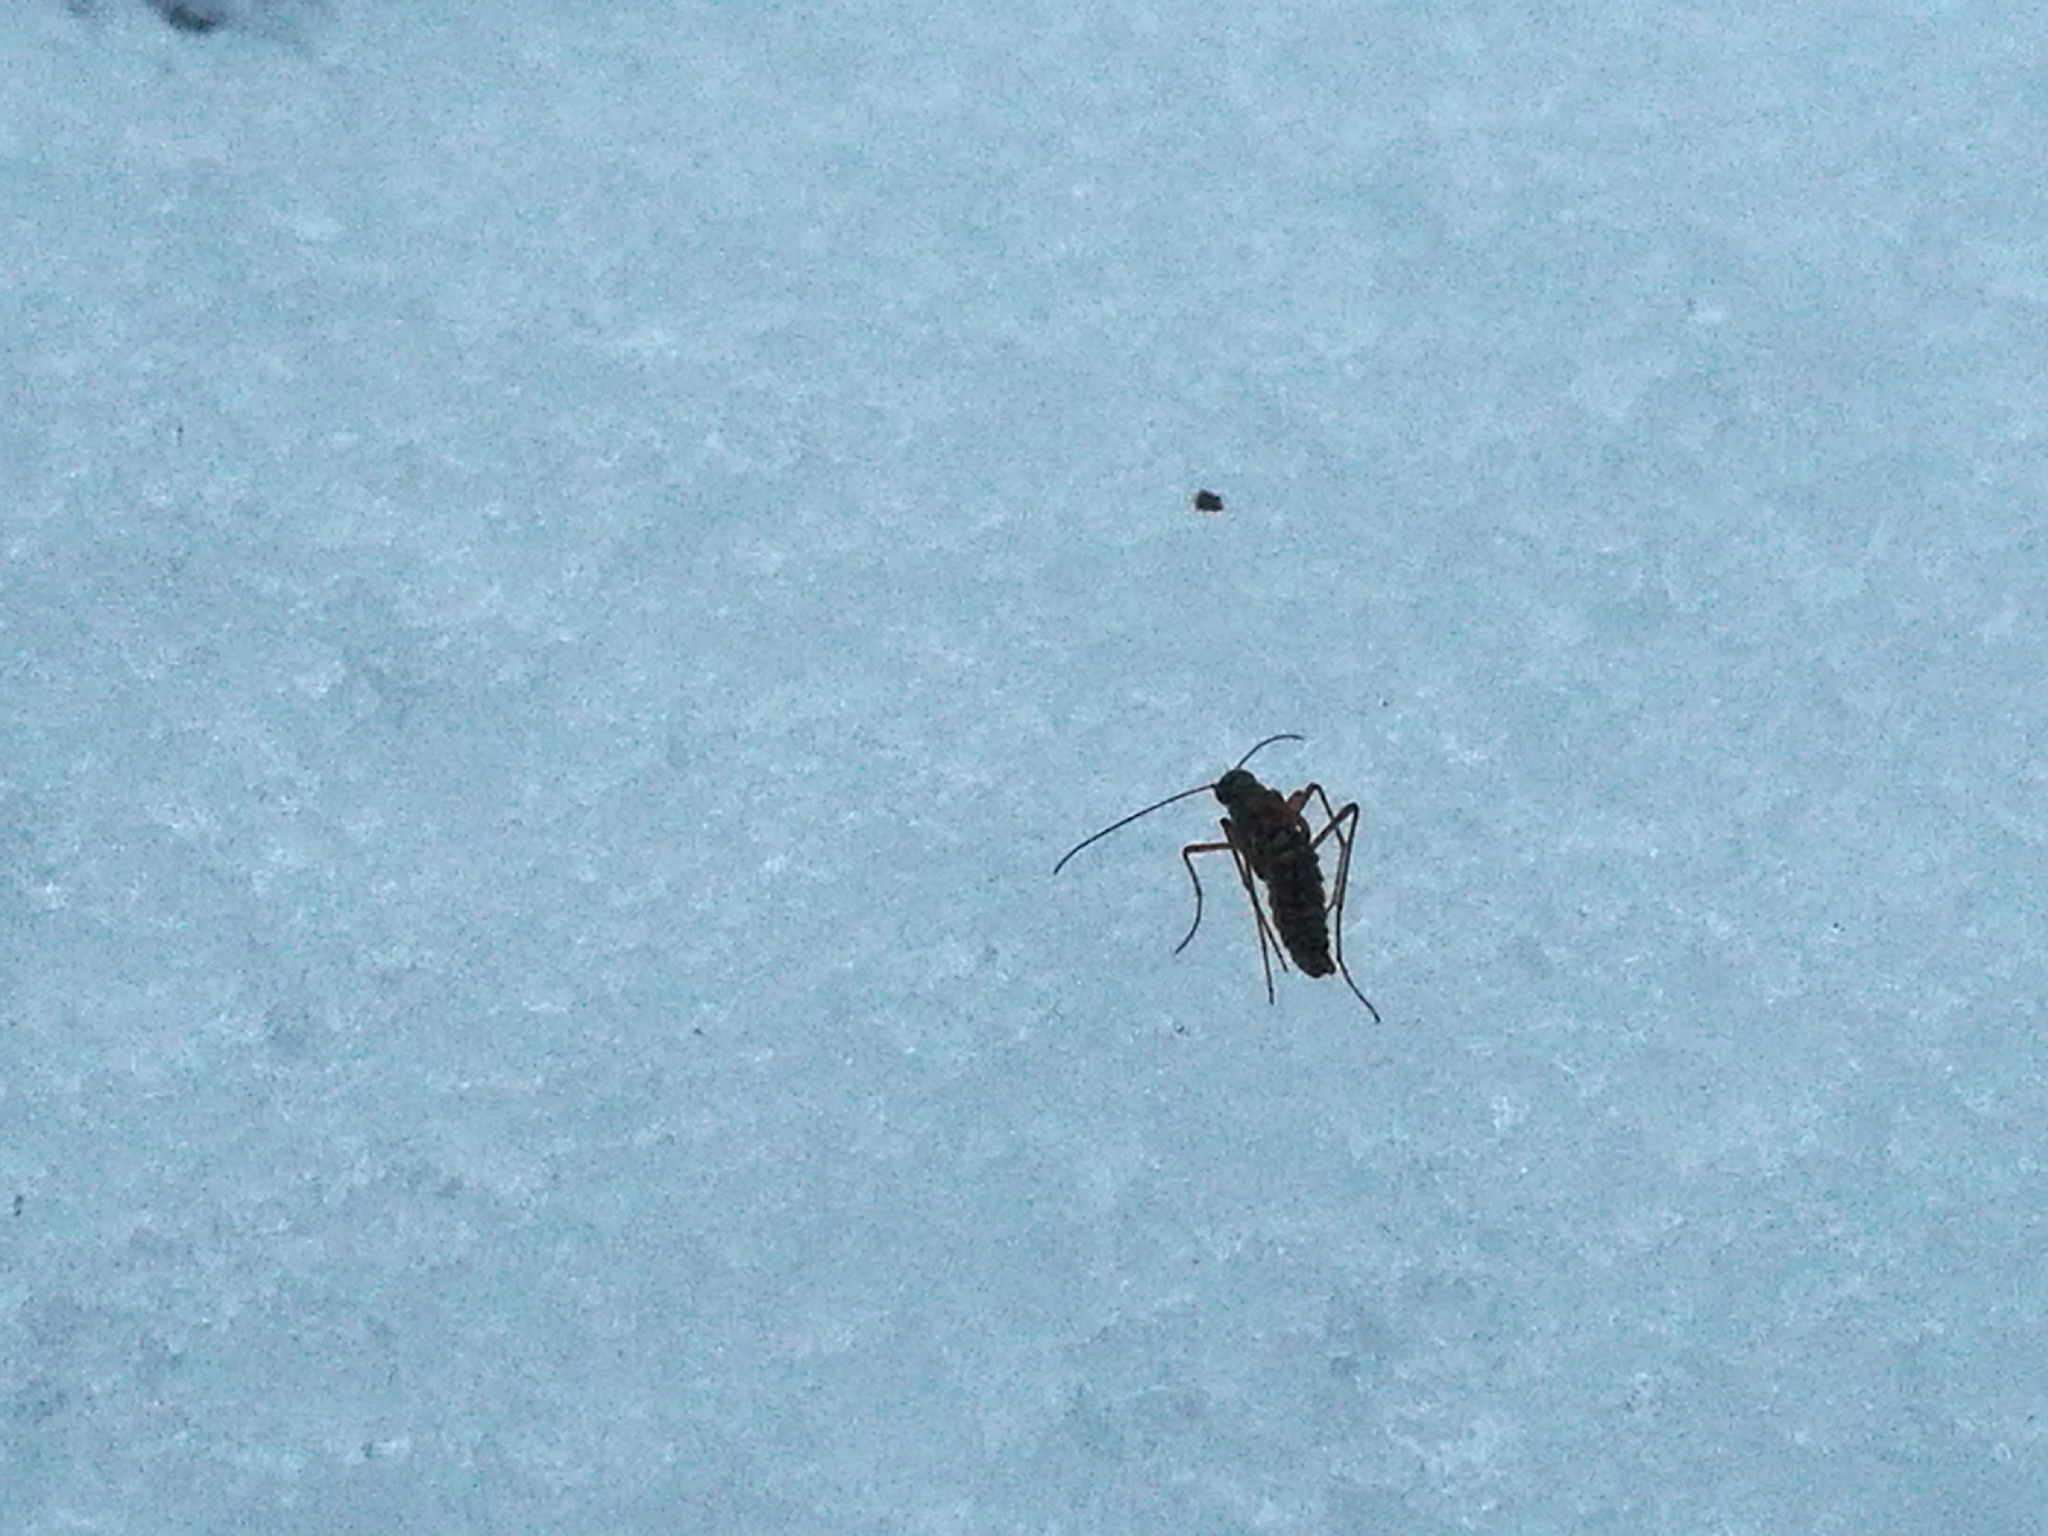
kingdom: Animalia
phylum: Arthropoda
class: Insecta
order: Mecoptera
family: Boreidae
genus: Boreus
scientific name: Boreus westwoodi
